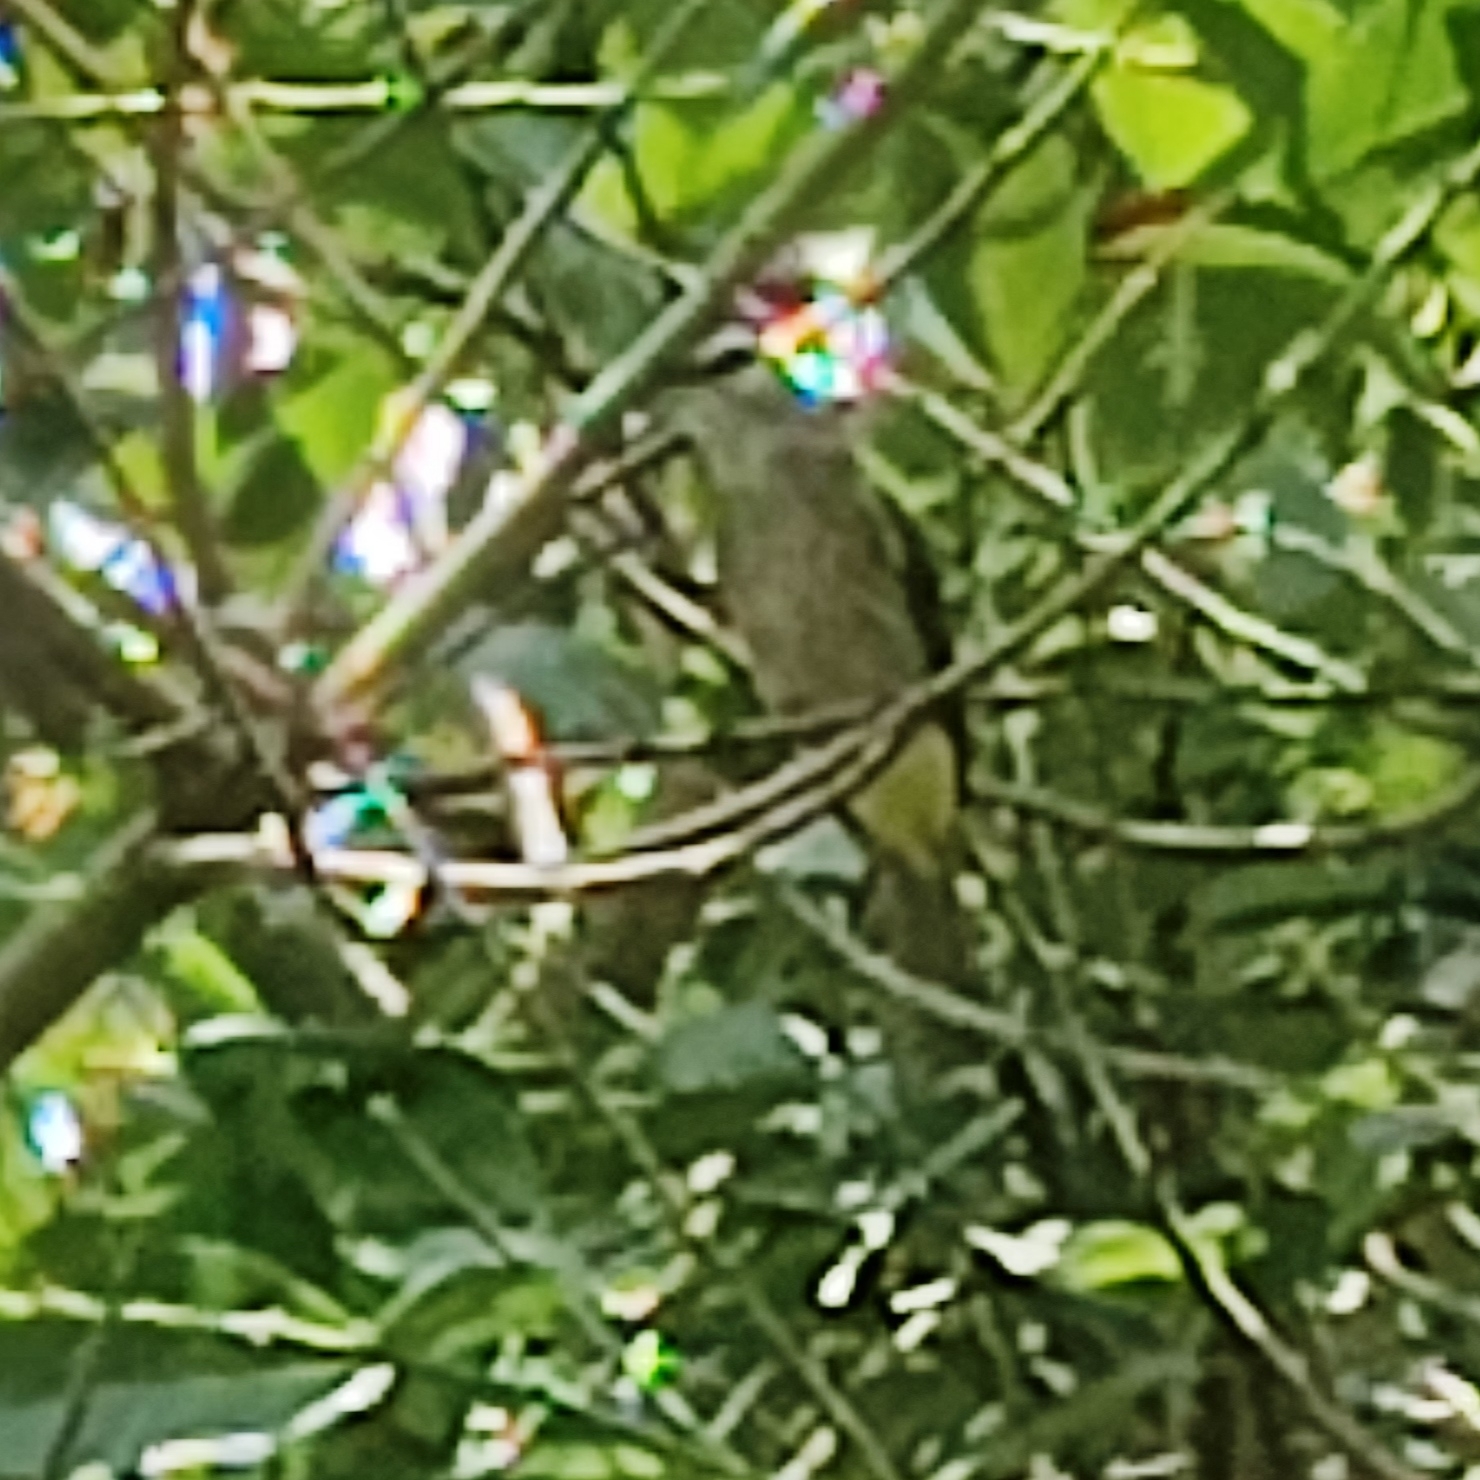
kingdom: Animalia
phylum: Chordata
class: Aves
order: Passeriformes
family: Pycnonotidae
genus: Pycnonotus
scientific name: Pycnonotus goiavier
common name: Yellow-vented bulbul
